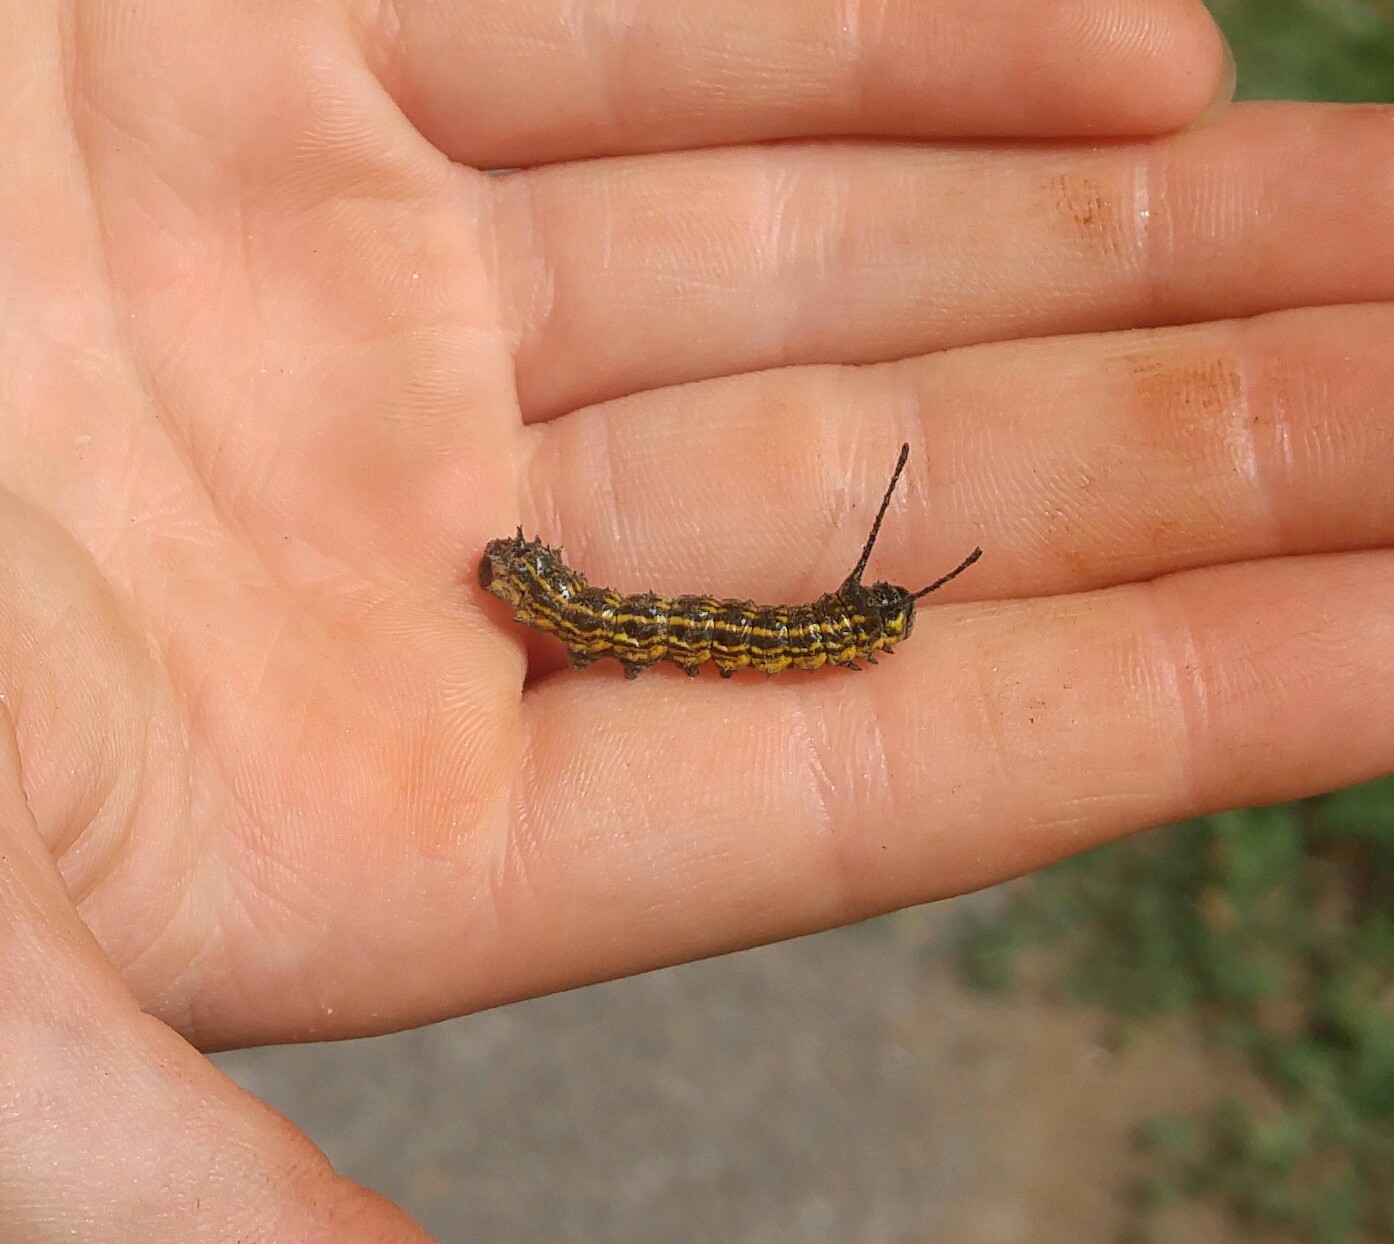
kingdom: Animalia
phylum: Arthropoda
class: Insecta
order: Lepidoptera
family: Saturniidae
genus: Anisota
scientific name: Anisota senatoria
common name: Orange-striped oakworm moth
